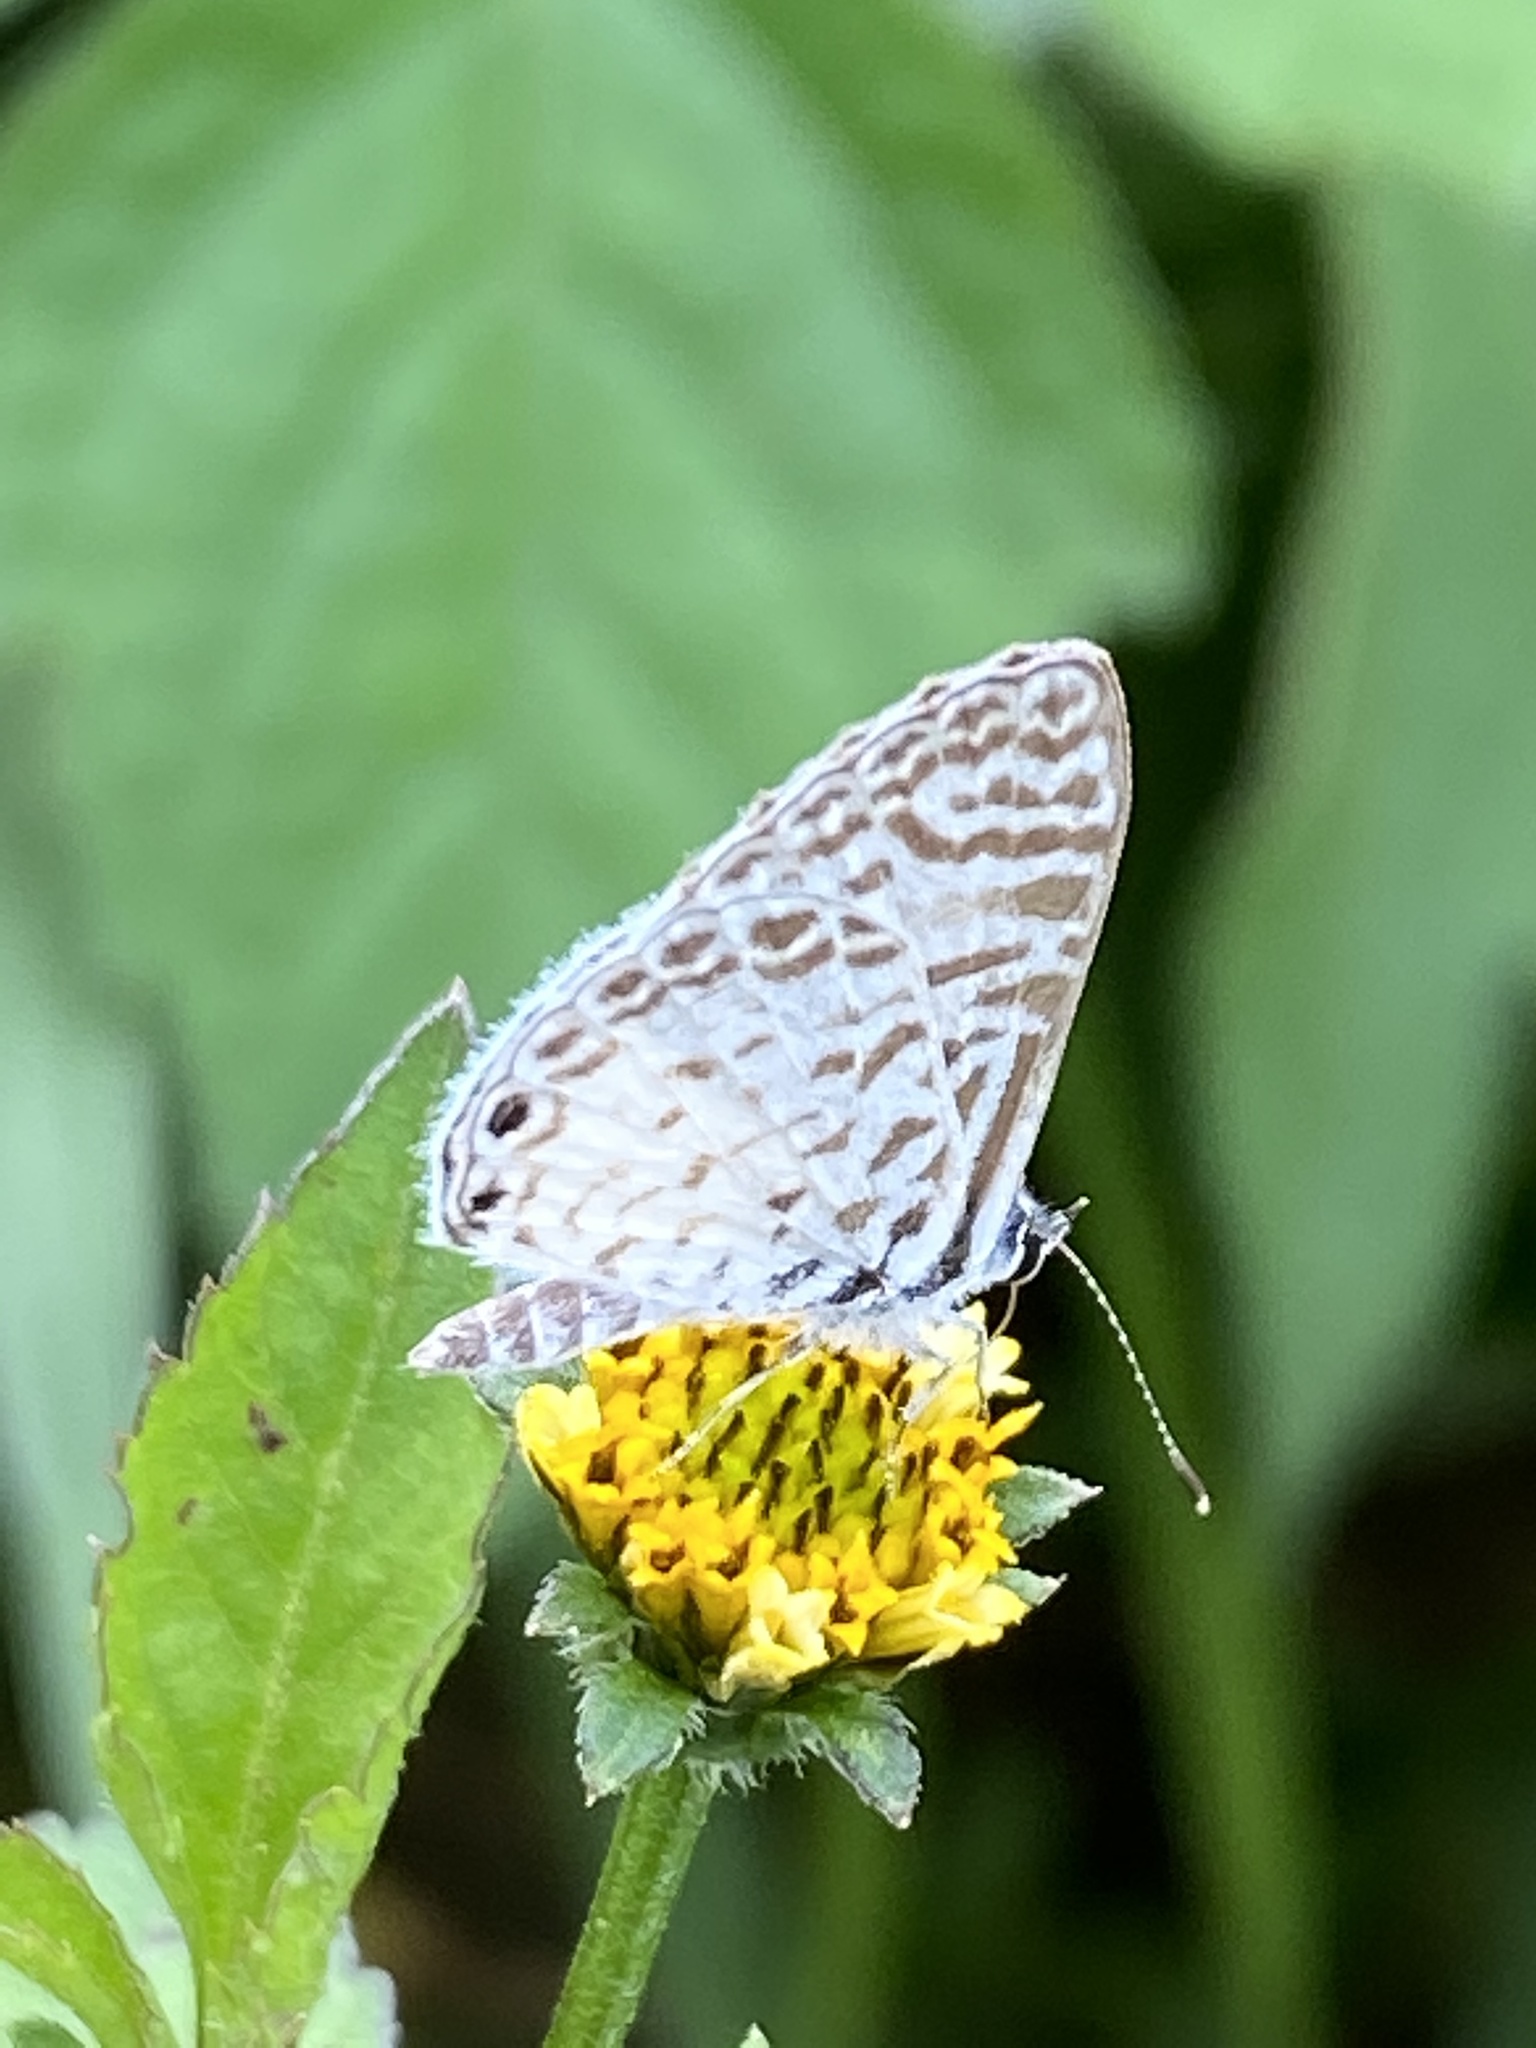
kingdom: Animalia
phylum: Arthropoda
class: Insecta
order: Lepidoptera
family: Lycaenidae
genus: Leptotes
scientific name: Leptotes cassius
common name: Cassius blue
